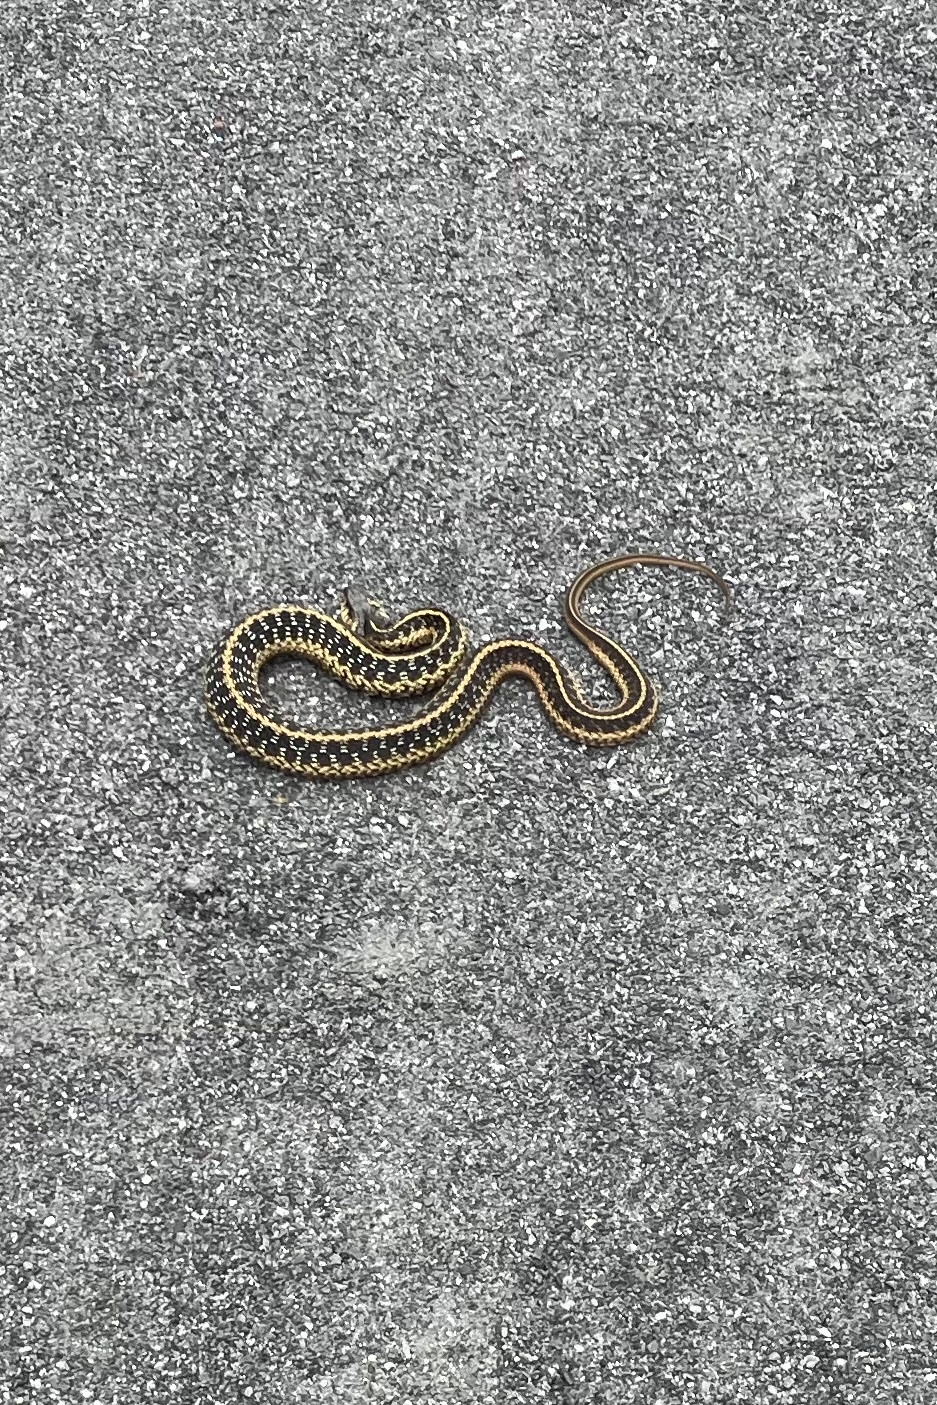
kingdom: Animalia
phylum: Chordata
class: Squamata
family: Colubridae
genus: Thamnophis
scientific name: Thamnophis sirtalis
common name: Common garter snake
